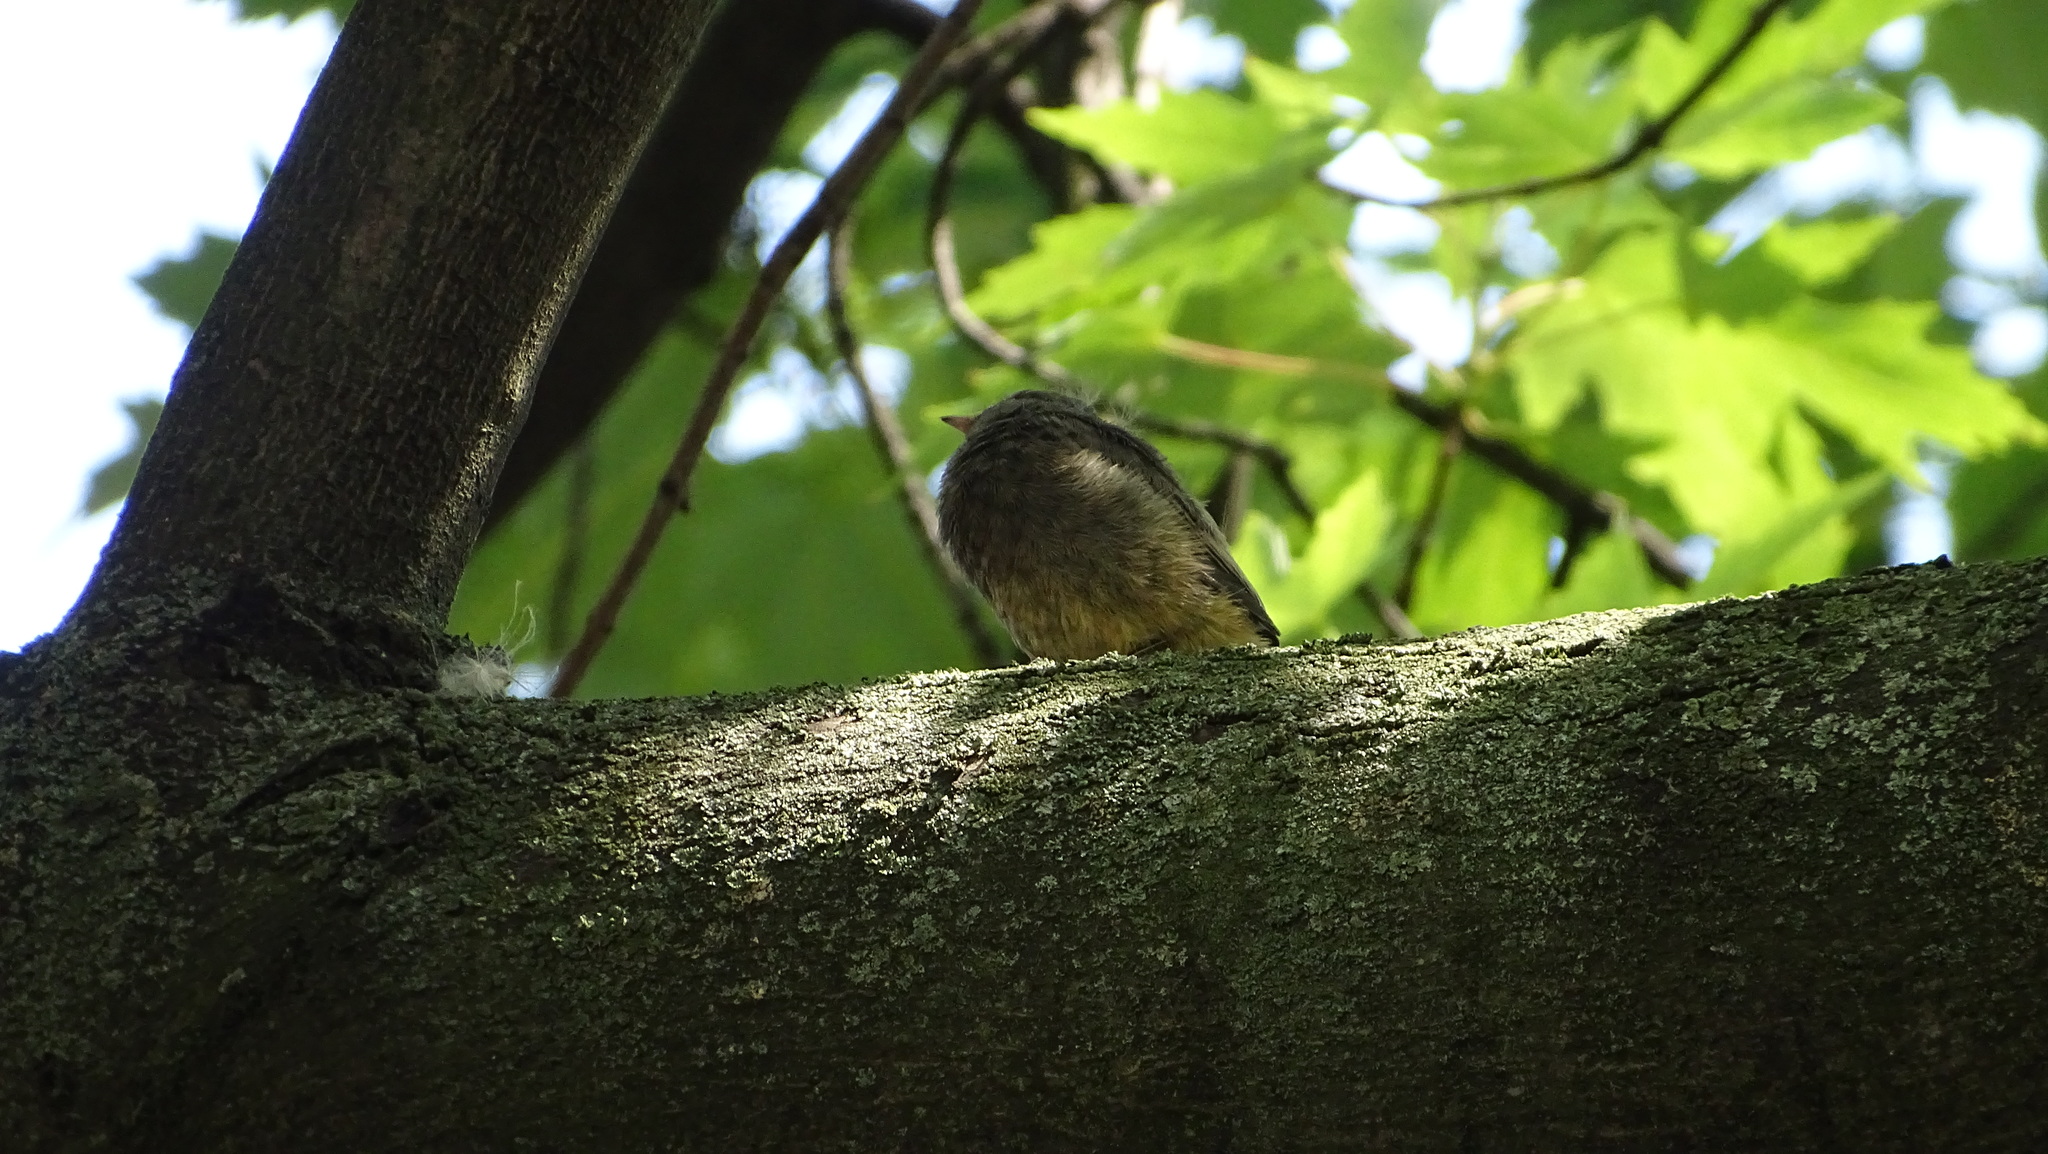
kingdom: Animalia
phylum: Chordata
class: Aves
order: Passeriformes
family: Muscicapidae
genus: Phoenicurus
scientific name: Phoenicurus ochruros
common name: Black redstart
